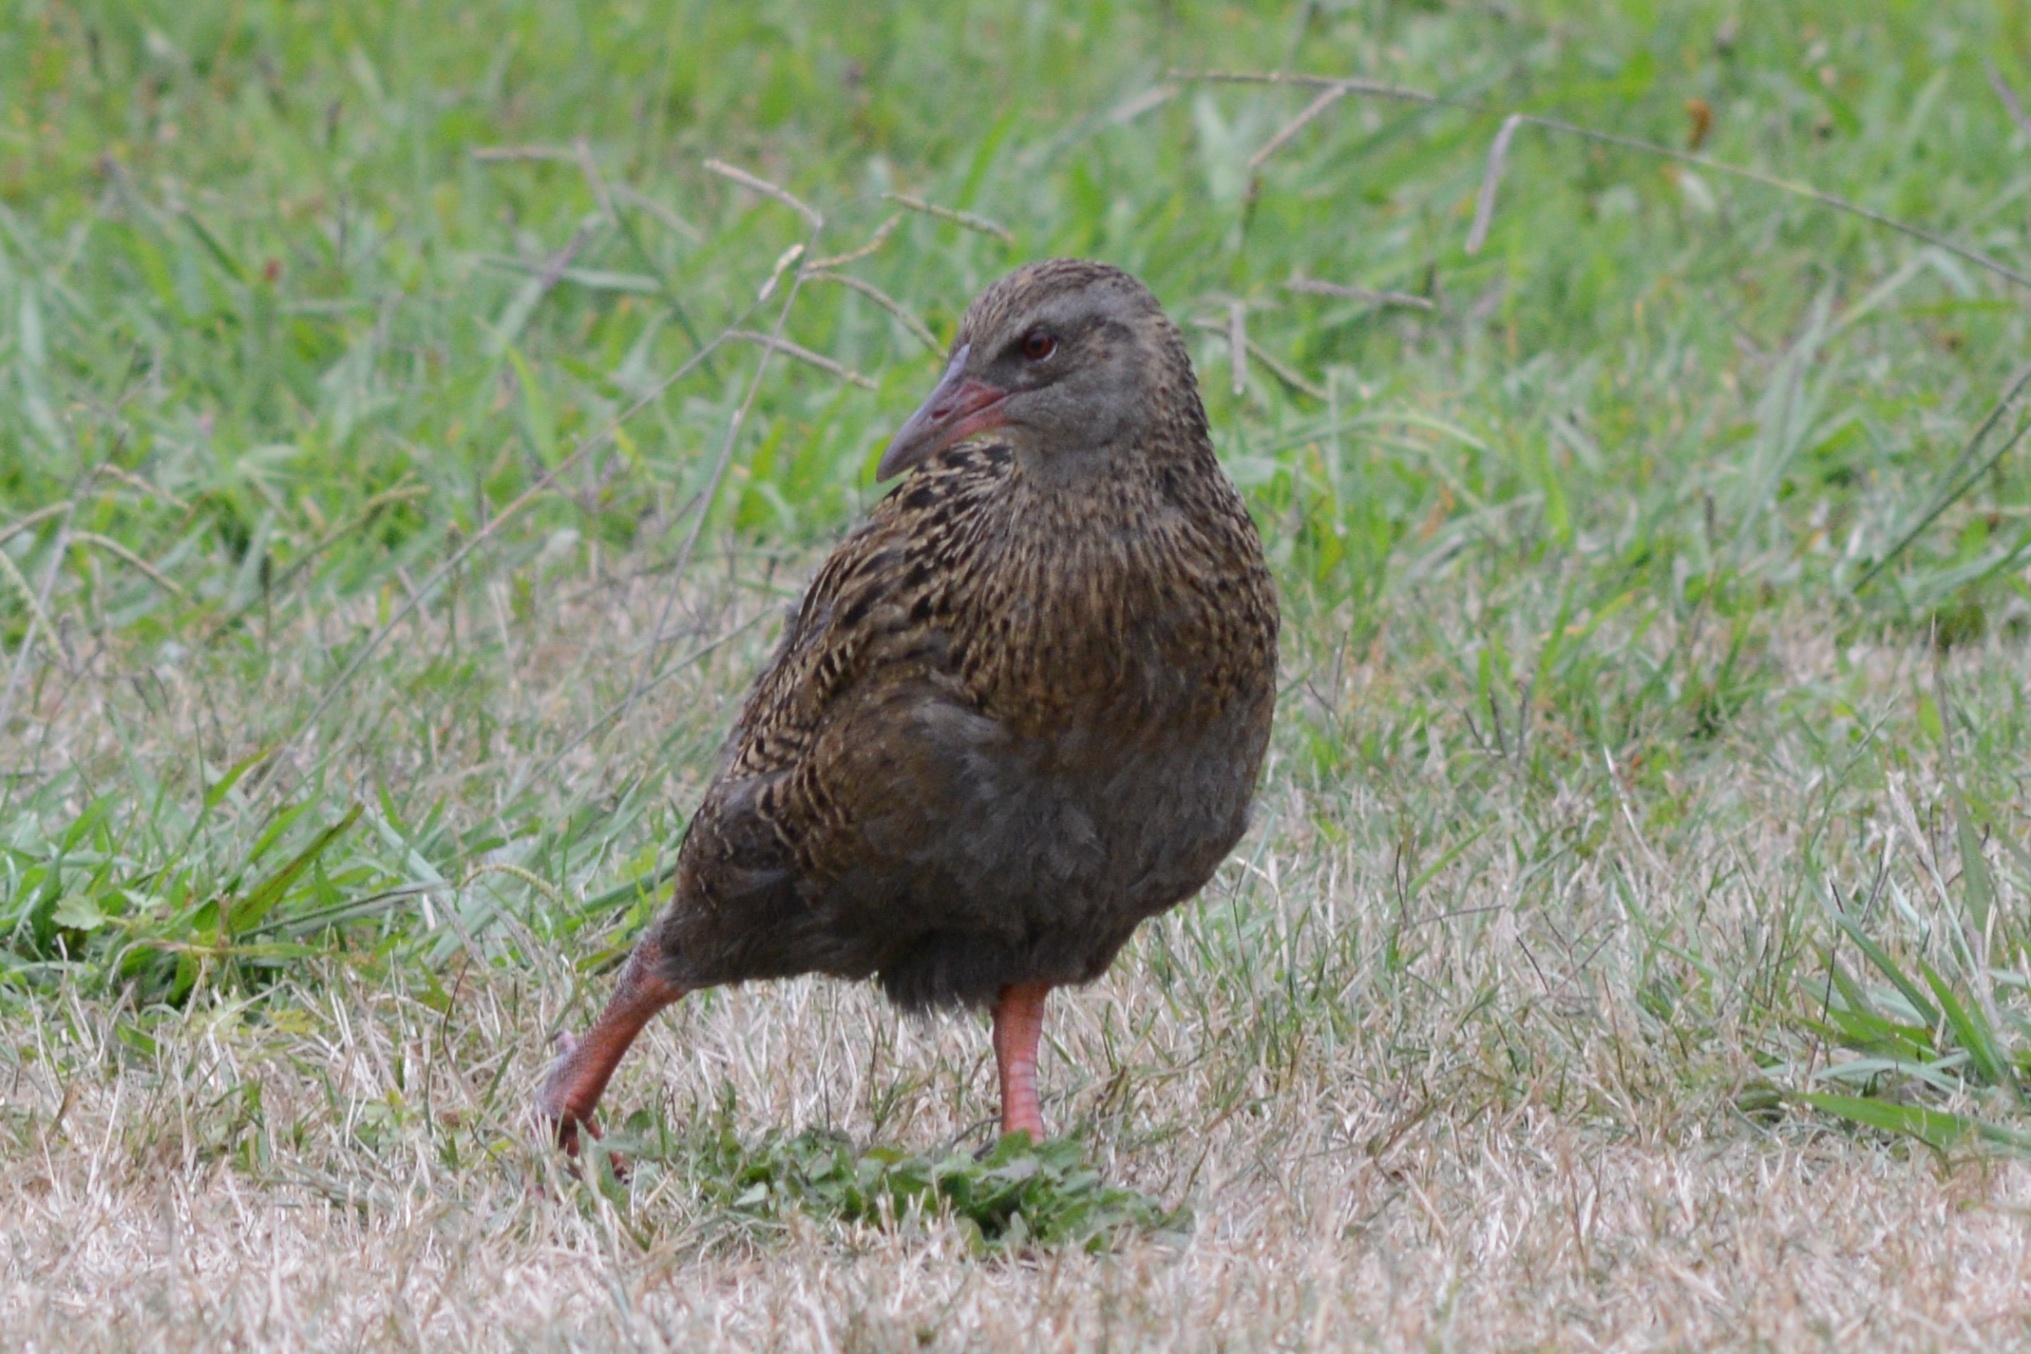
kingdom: Animalia
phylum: Chordata
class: Aves
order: Gruiformes
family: Rallidae
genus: Gallirallus
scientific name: Gallirallus australis
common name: Weka
